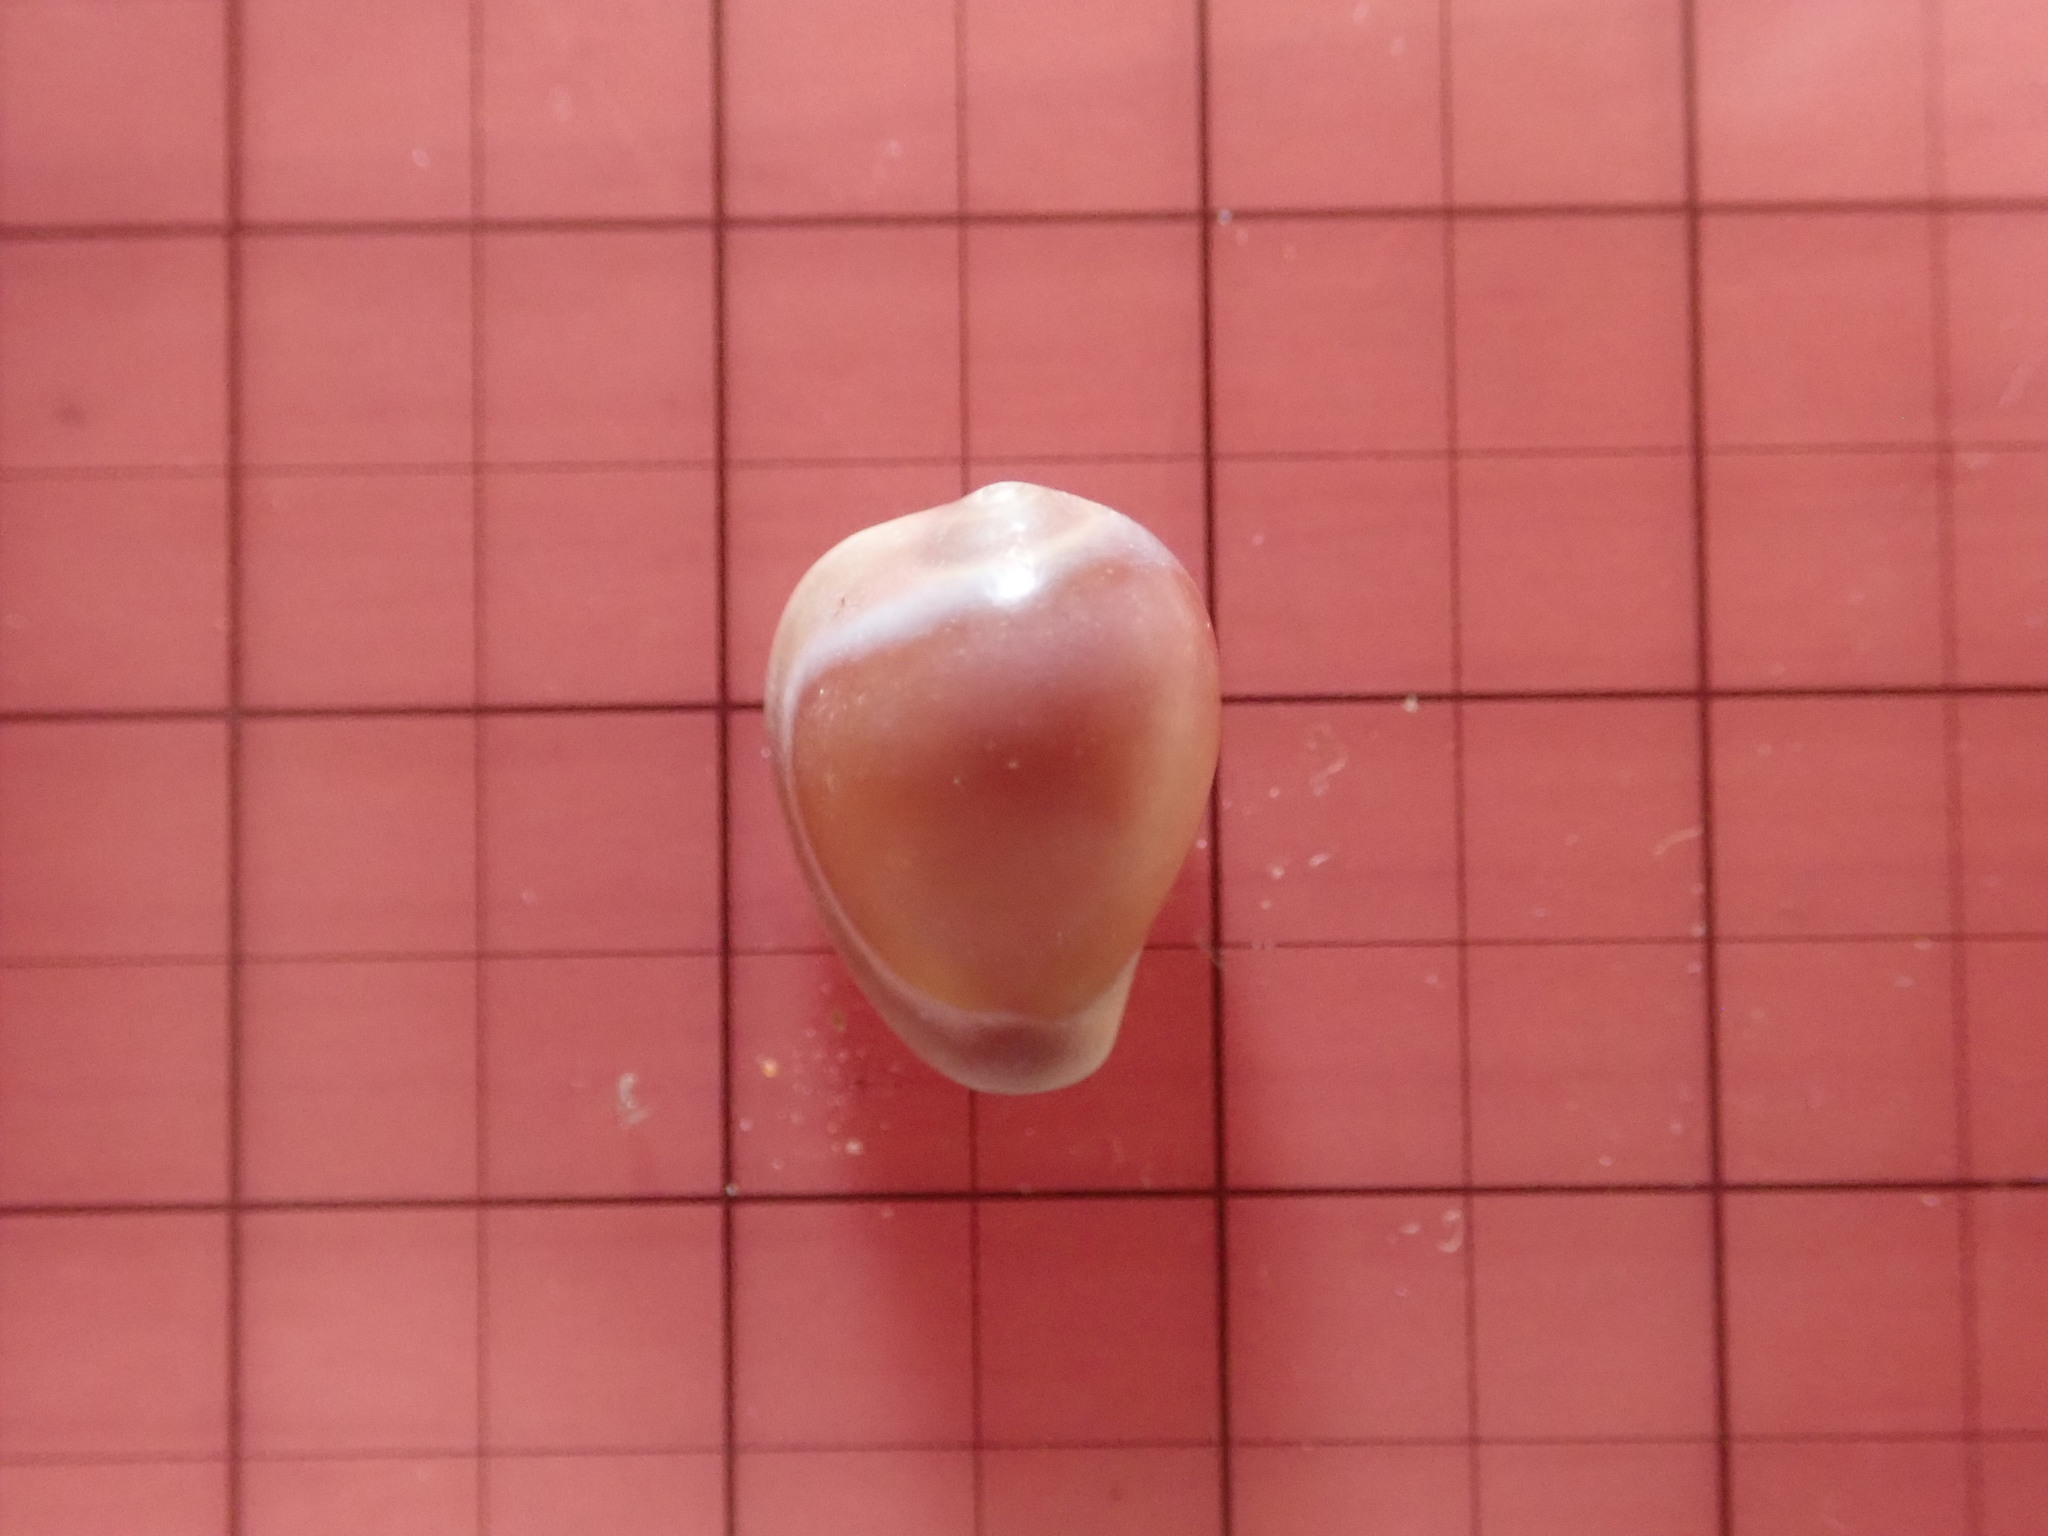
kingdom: Animalia
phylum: Mollusca
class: Gastropoda
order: Littorinimorpha
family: Eratoidae
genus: Hespererato
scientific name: Hespererato vitellina
